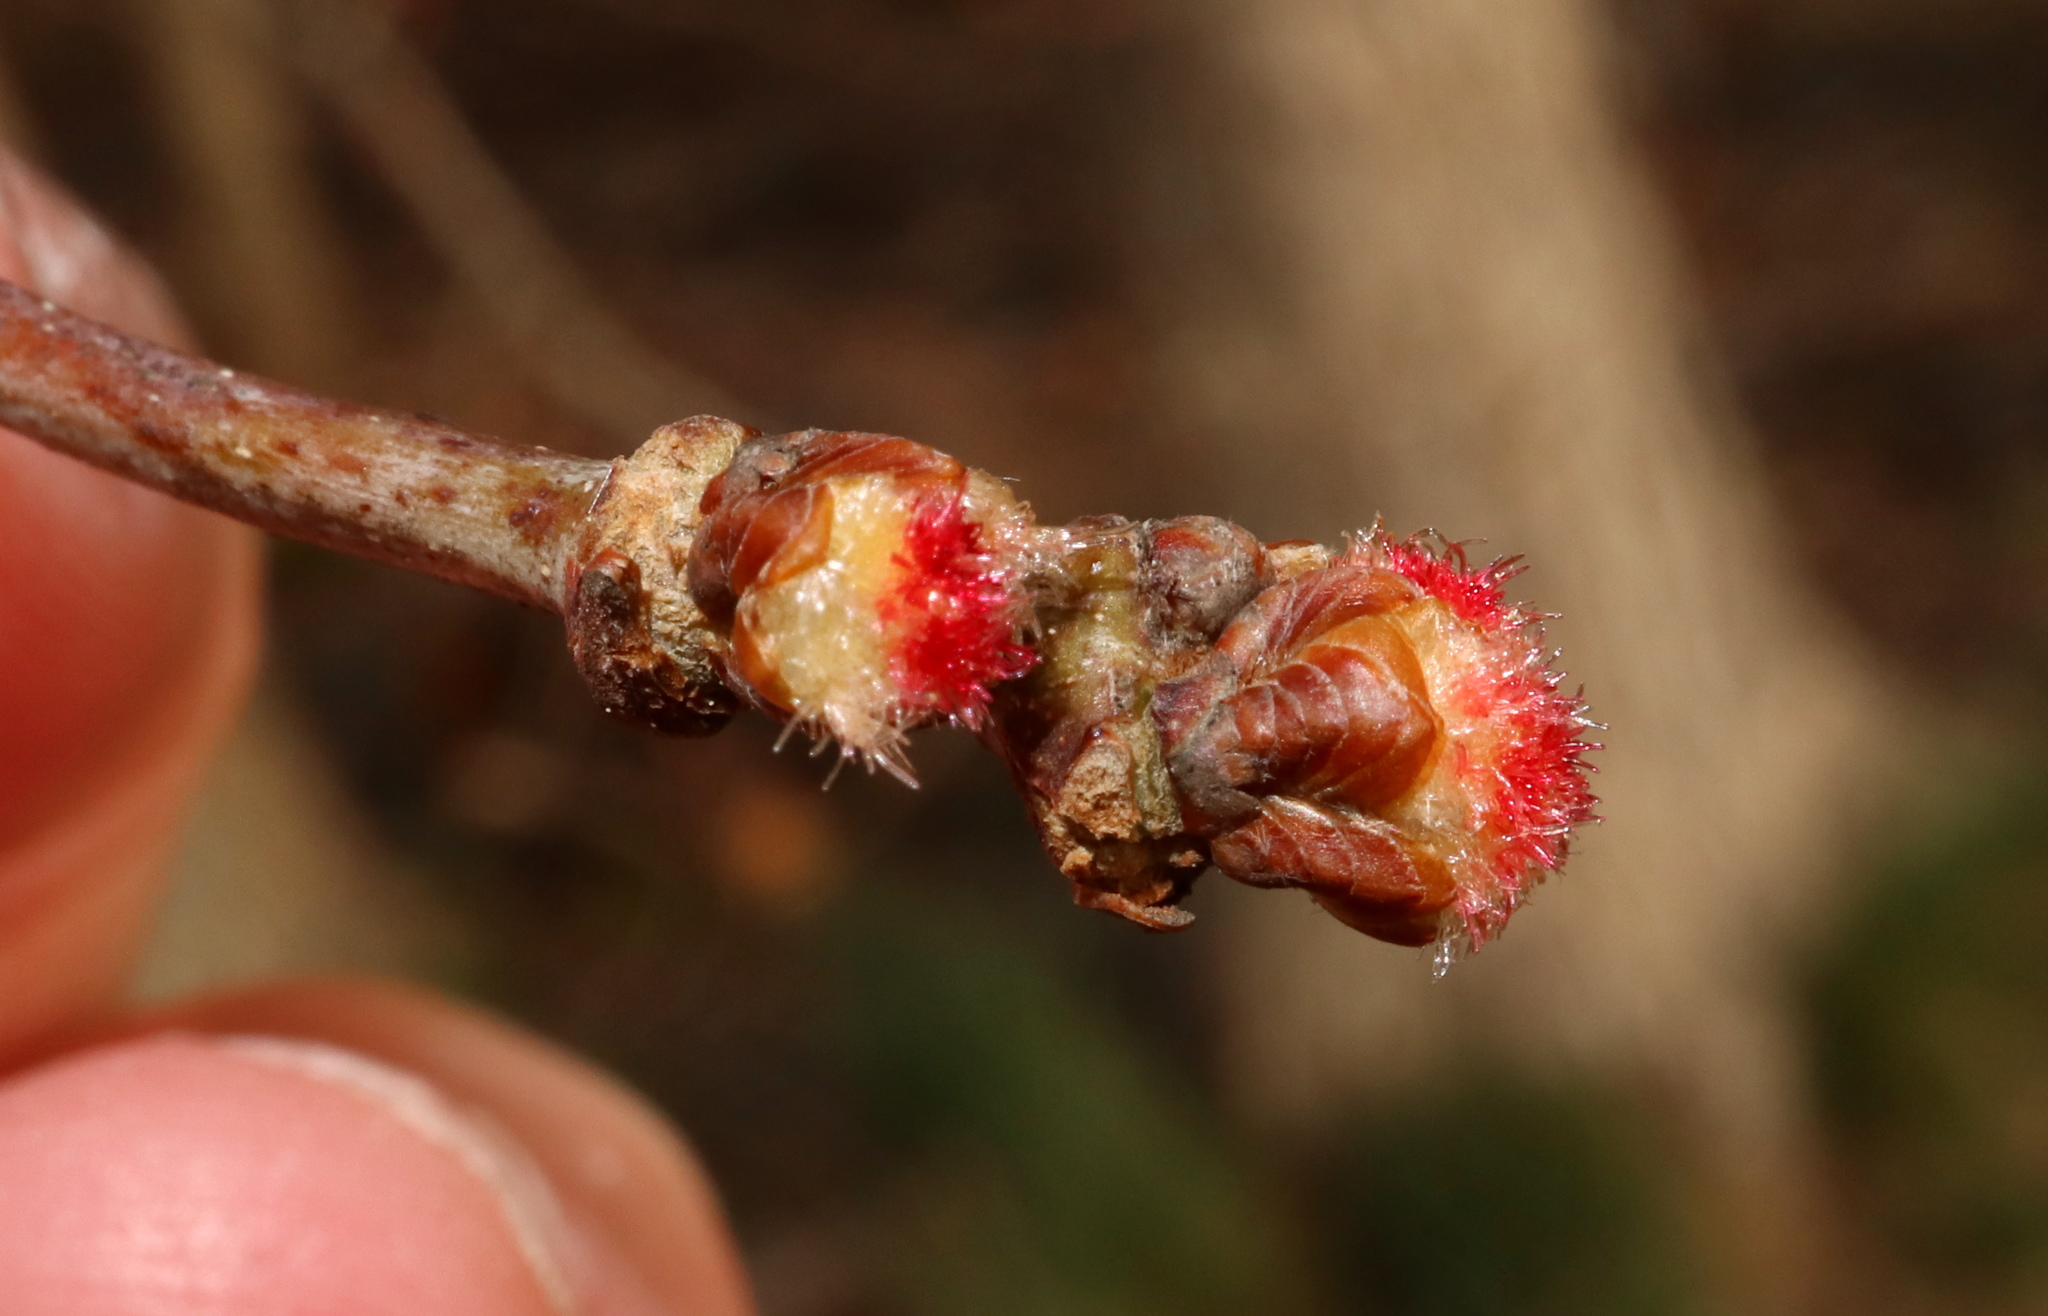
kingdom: Animalia
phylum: Arthropoda
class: Insecta
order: Hymenoptera
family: Cynipidae
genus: Callirhytis
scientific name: Callirhytis
